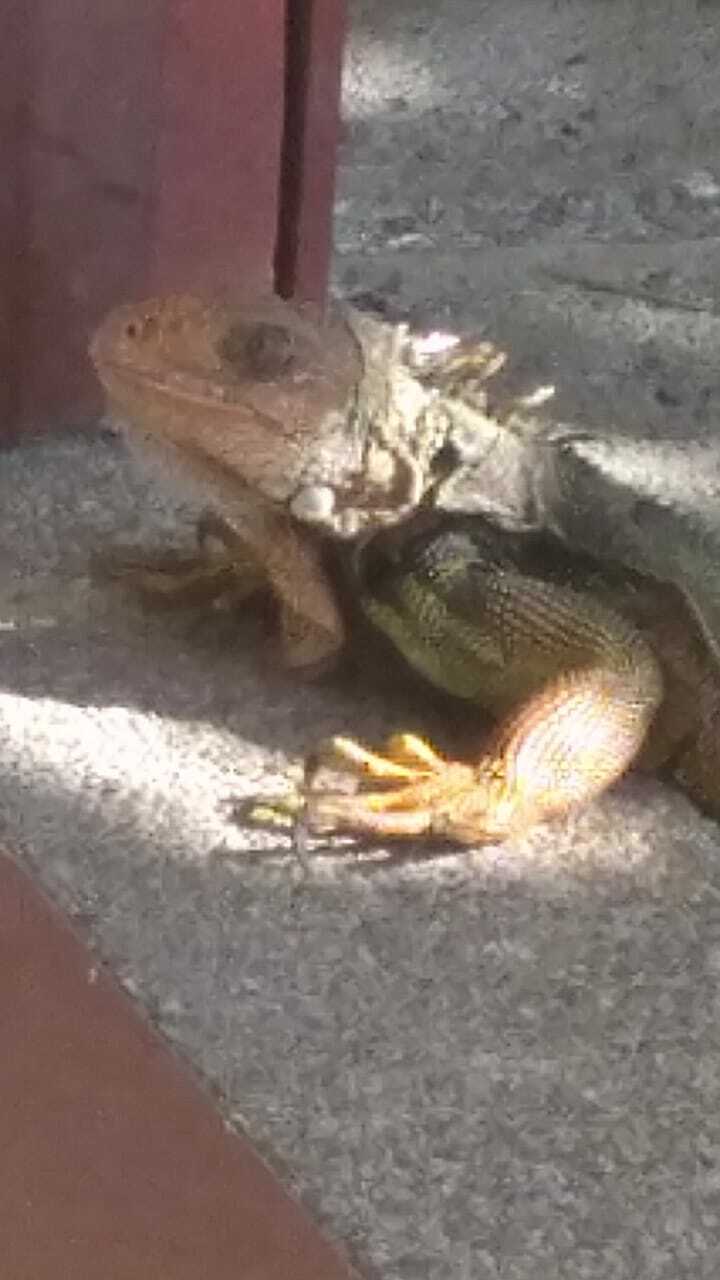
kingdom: Animalia
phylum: Chordata
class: Squamata
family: Iguanidae
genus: Iguana
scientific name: Iguana iguana
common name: Green iguana
